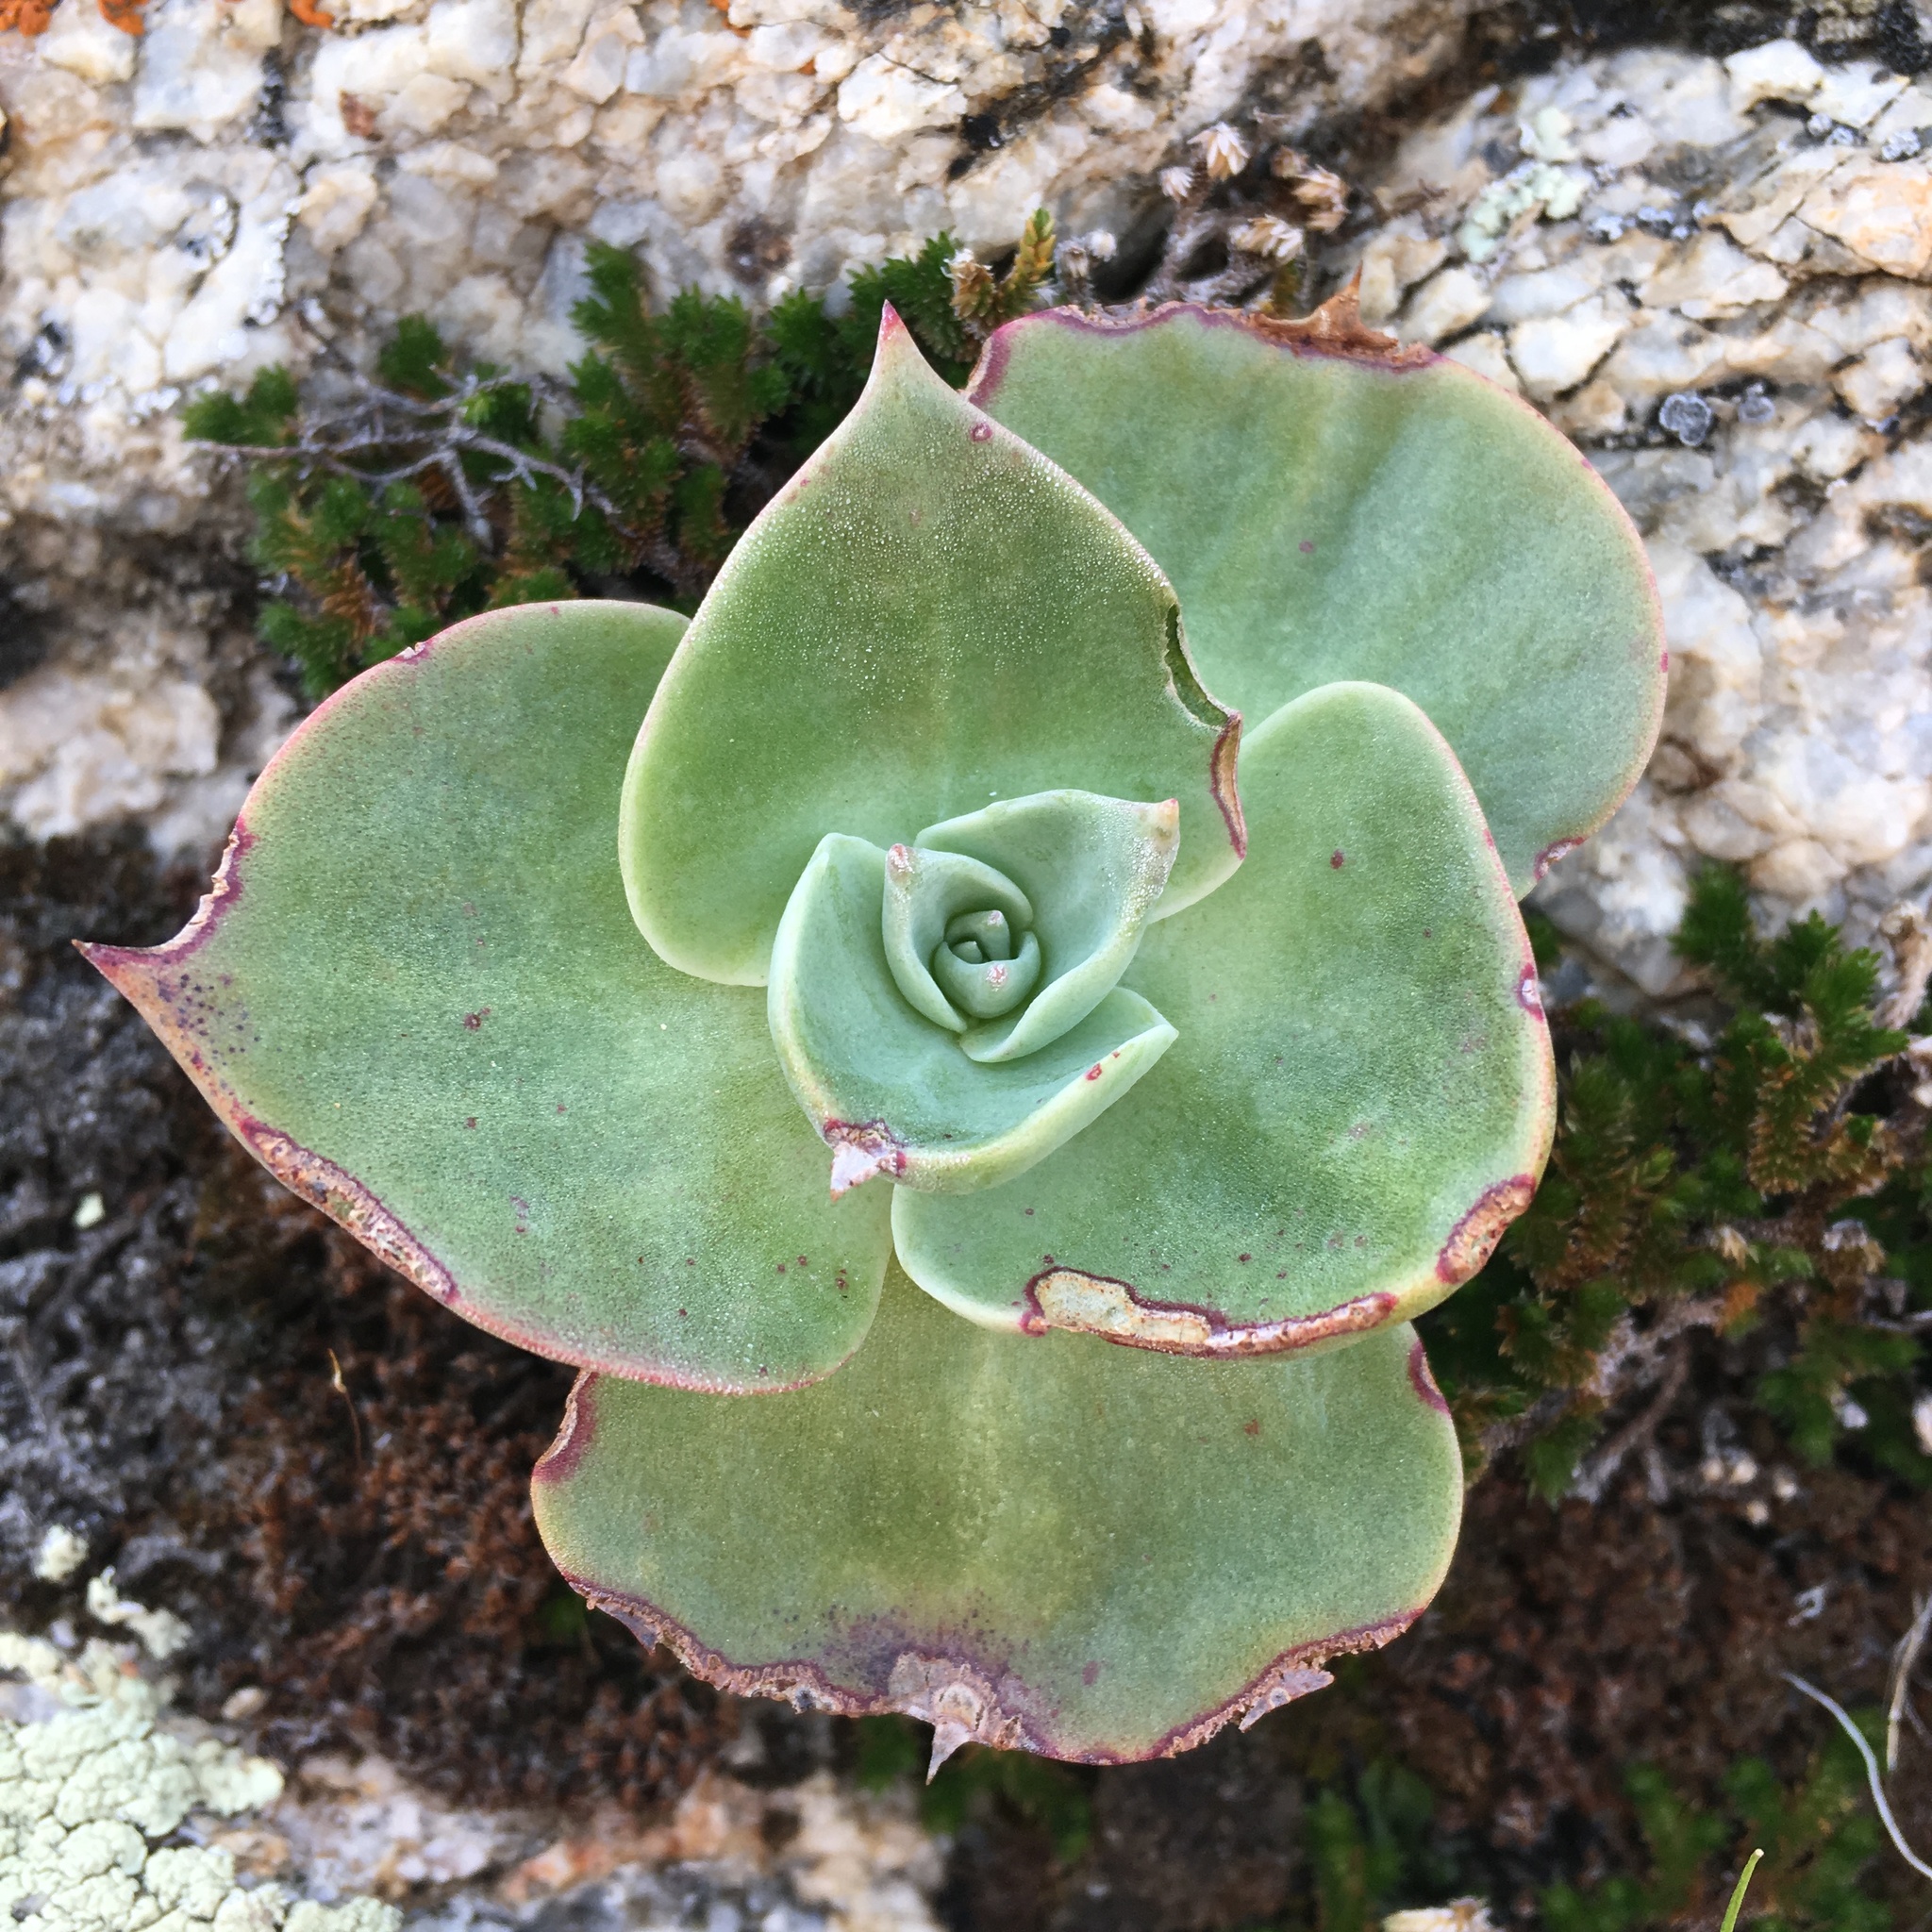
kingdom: Plantae
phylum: Tracheophyta
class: Magnoliopsida
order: Saxifragales
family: Crassulaceae
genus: Dudleya
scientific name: Dudleya arizonica
